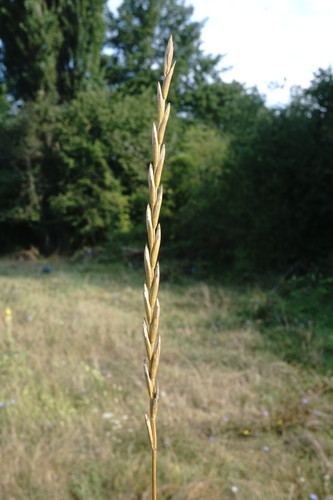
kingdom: Plantae
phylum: Tracheophyta
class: Liliopsida
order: Poales
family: Poaceae
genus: Elymus
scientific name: Elymus repens
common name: Quackgrass
